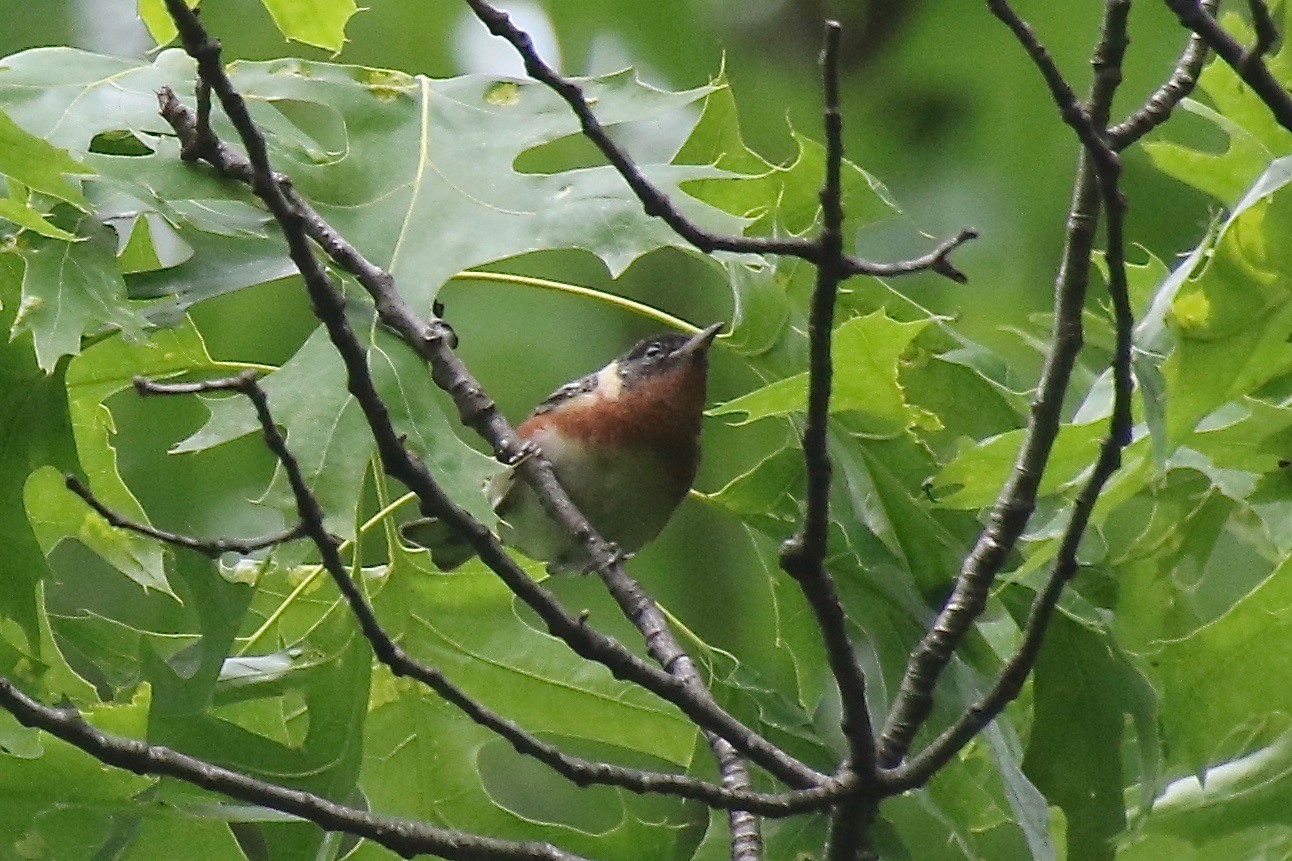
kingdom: Animalia
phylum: Chordata
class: Aves
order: Passeriformes
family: Parulidae
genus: Setophaga
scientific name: Setophaga castanea
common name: Bay-breasted warbler
